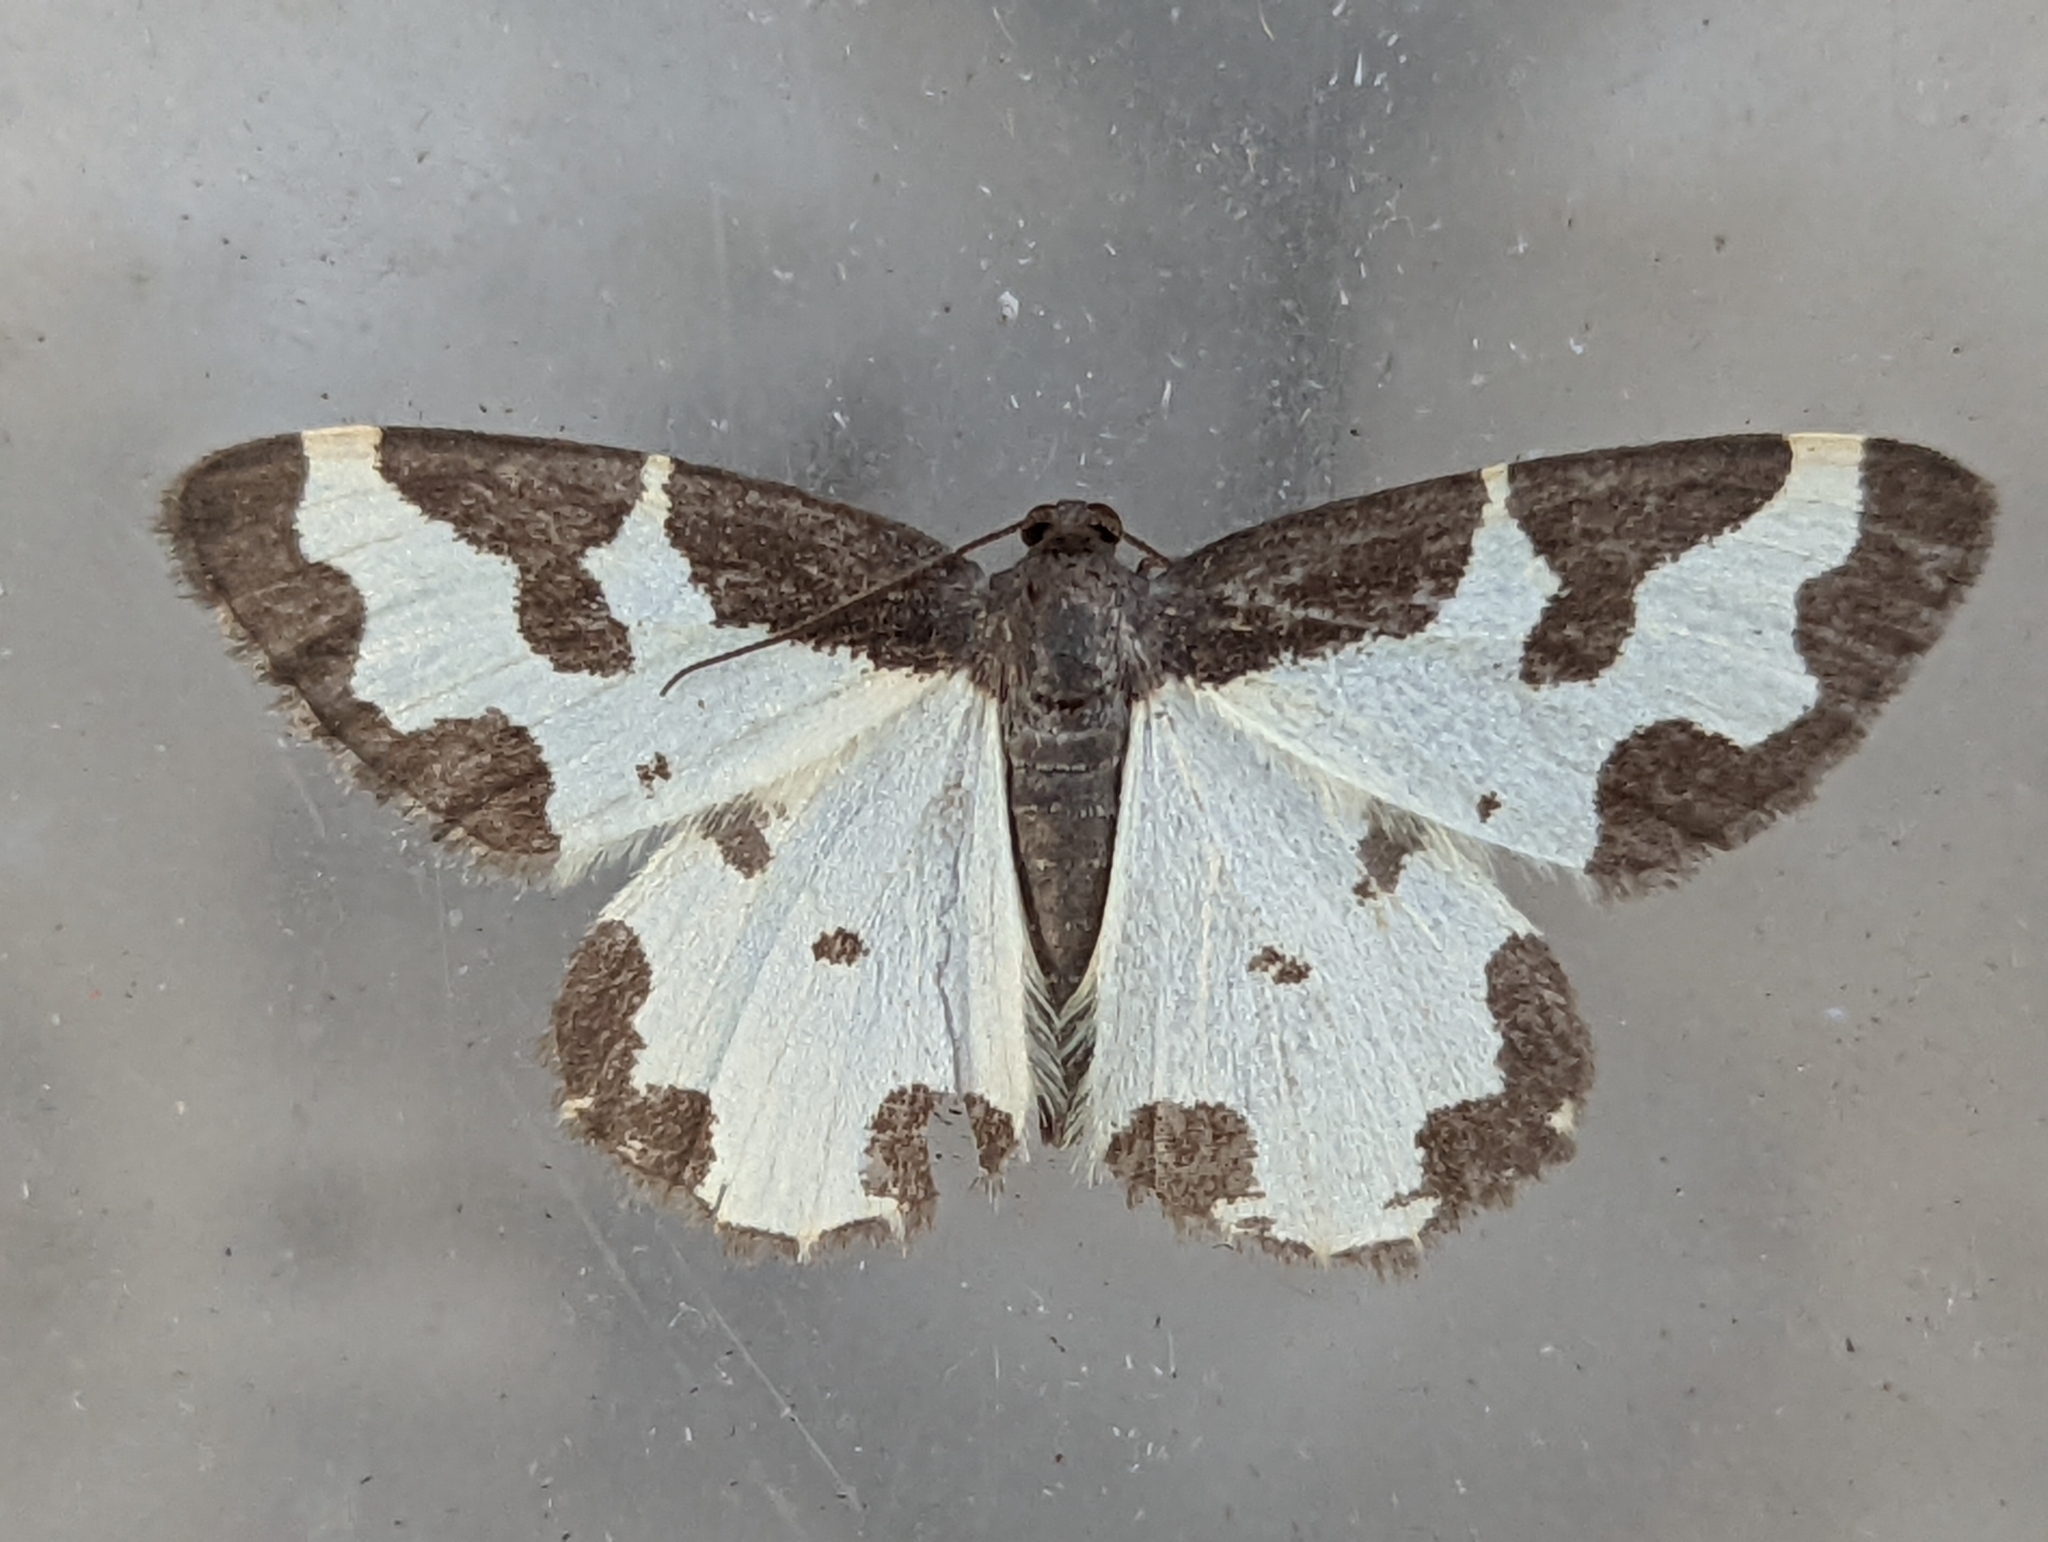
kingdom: Animalia
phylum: Arthropoda
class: Insecta
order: Lepidoptera
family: Geometridae
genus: Lomaspilis
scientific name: Lomaspilis marginata
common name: Clouded border
